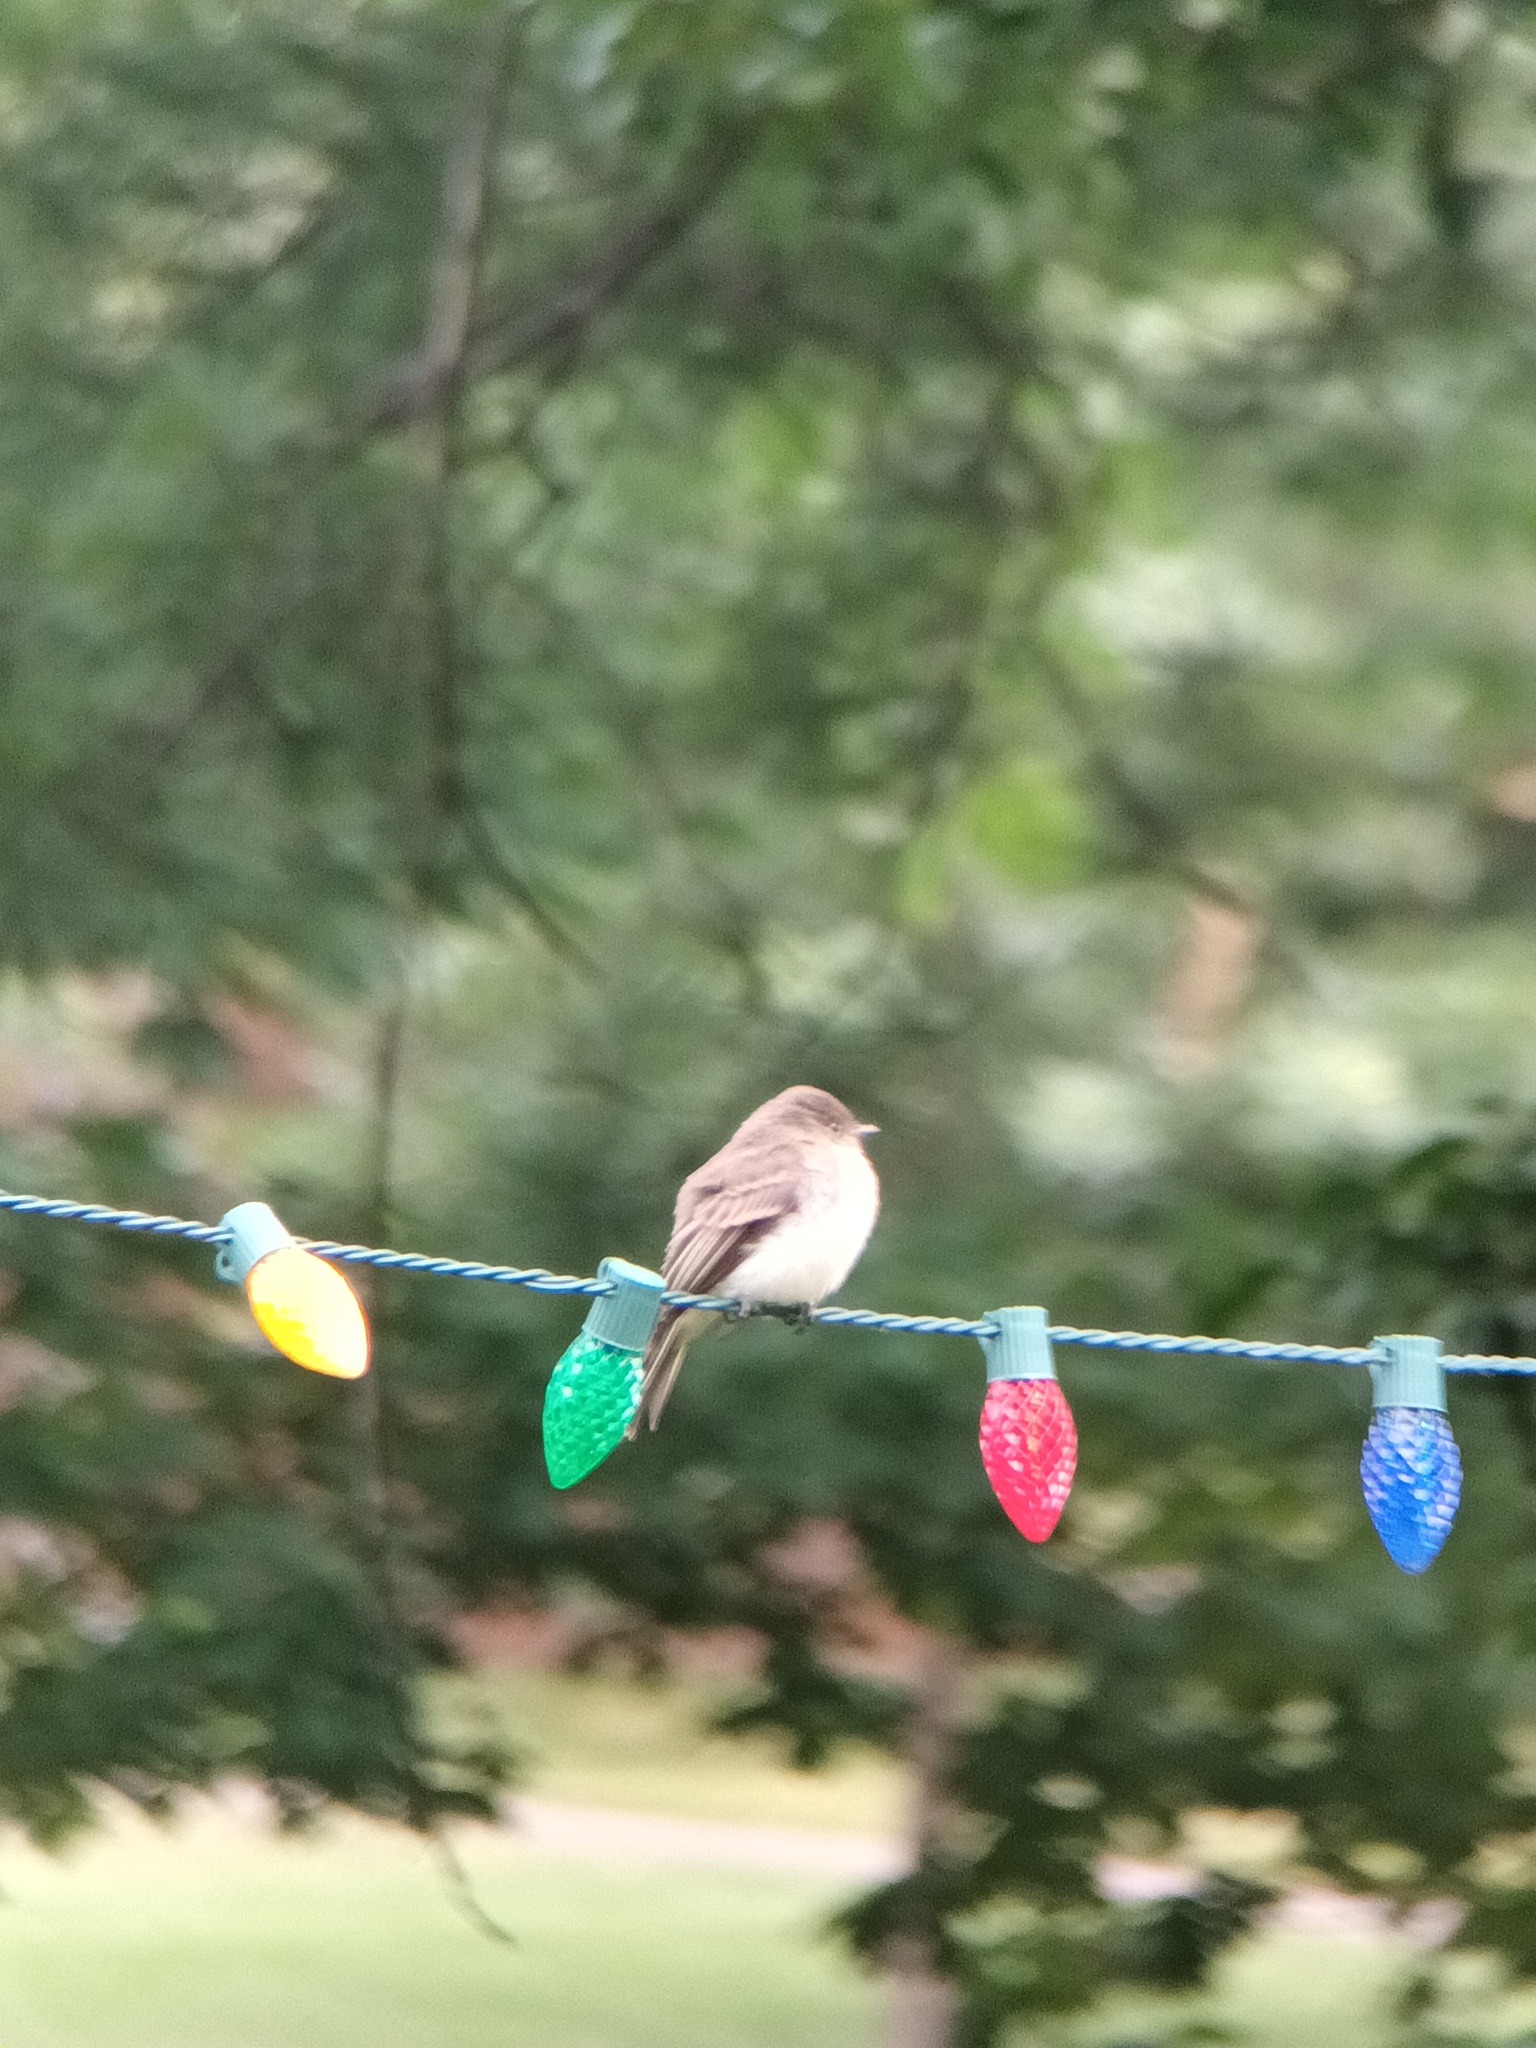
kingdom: Animalia
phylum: Chordata
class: Aves
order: Passeriformes
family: Tyrannidae
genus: Sayornis
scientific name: Sayornis phoebe
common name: Eastern phoebe
